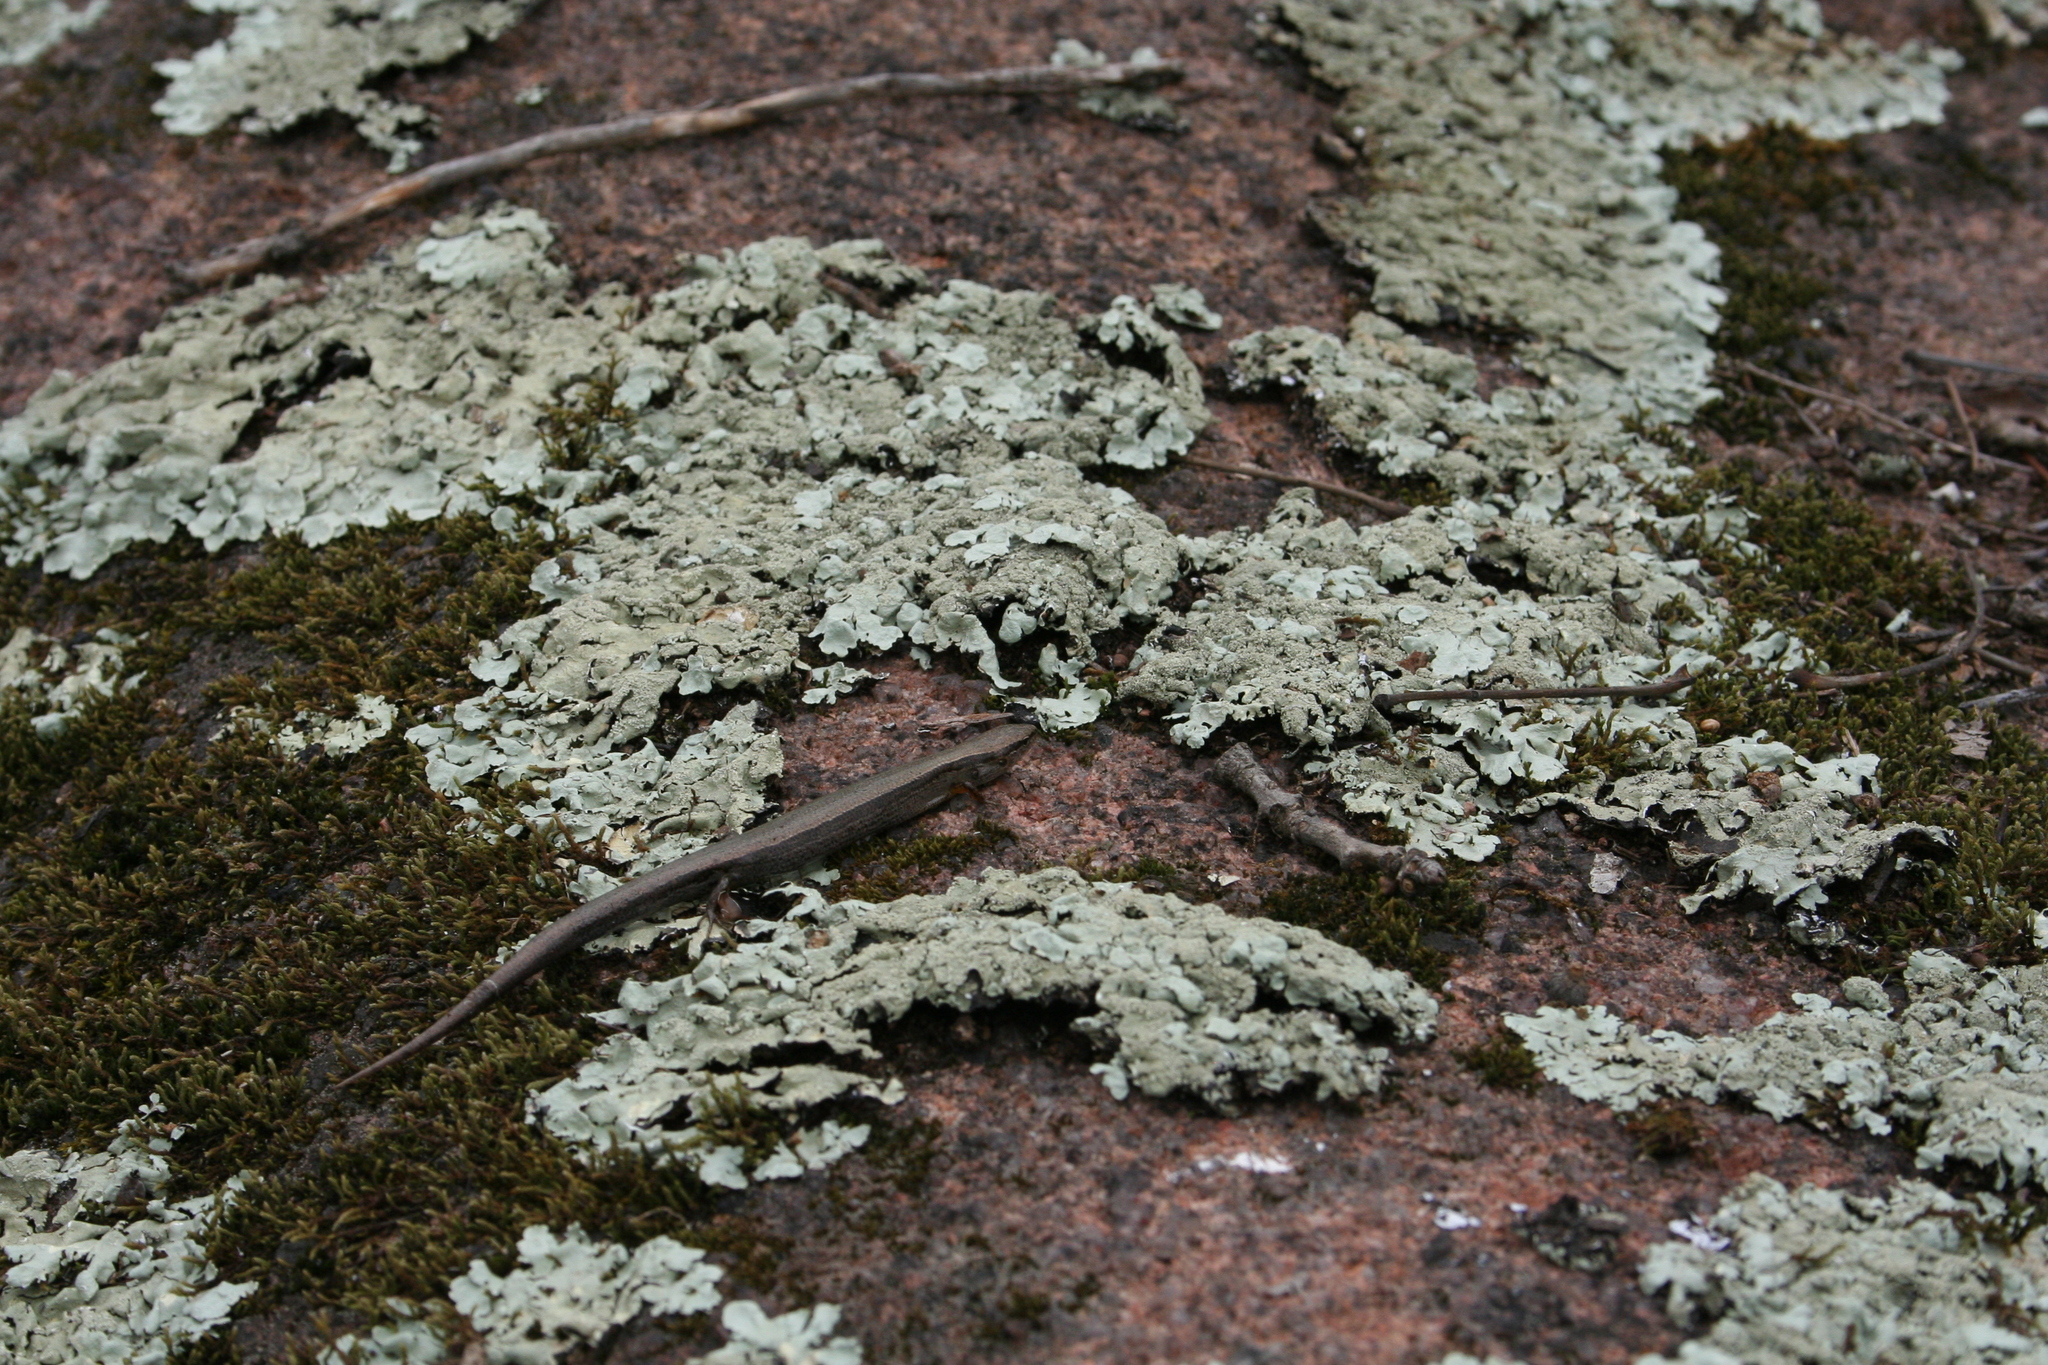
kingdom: Animalia
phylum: Chordata
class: Squamata
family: Scincidae
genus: Scincella
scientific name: Scincella lateralis
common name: Ground skink
